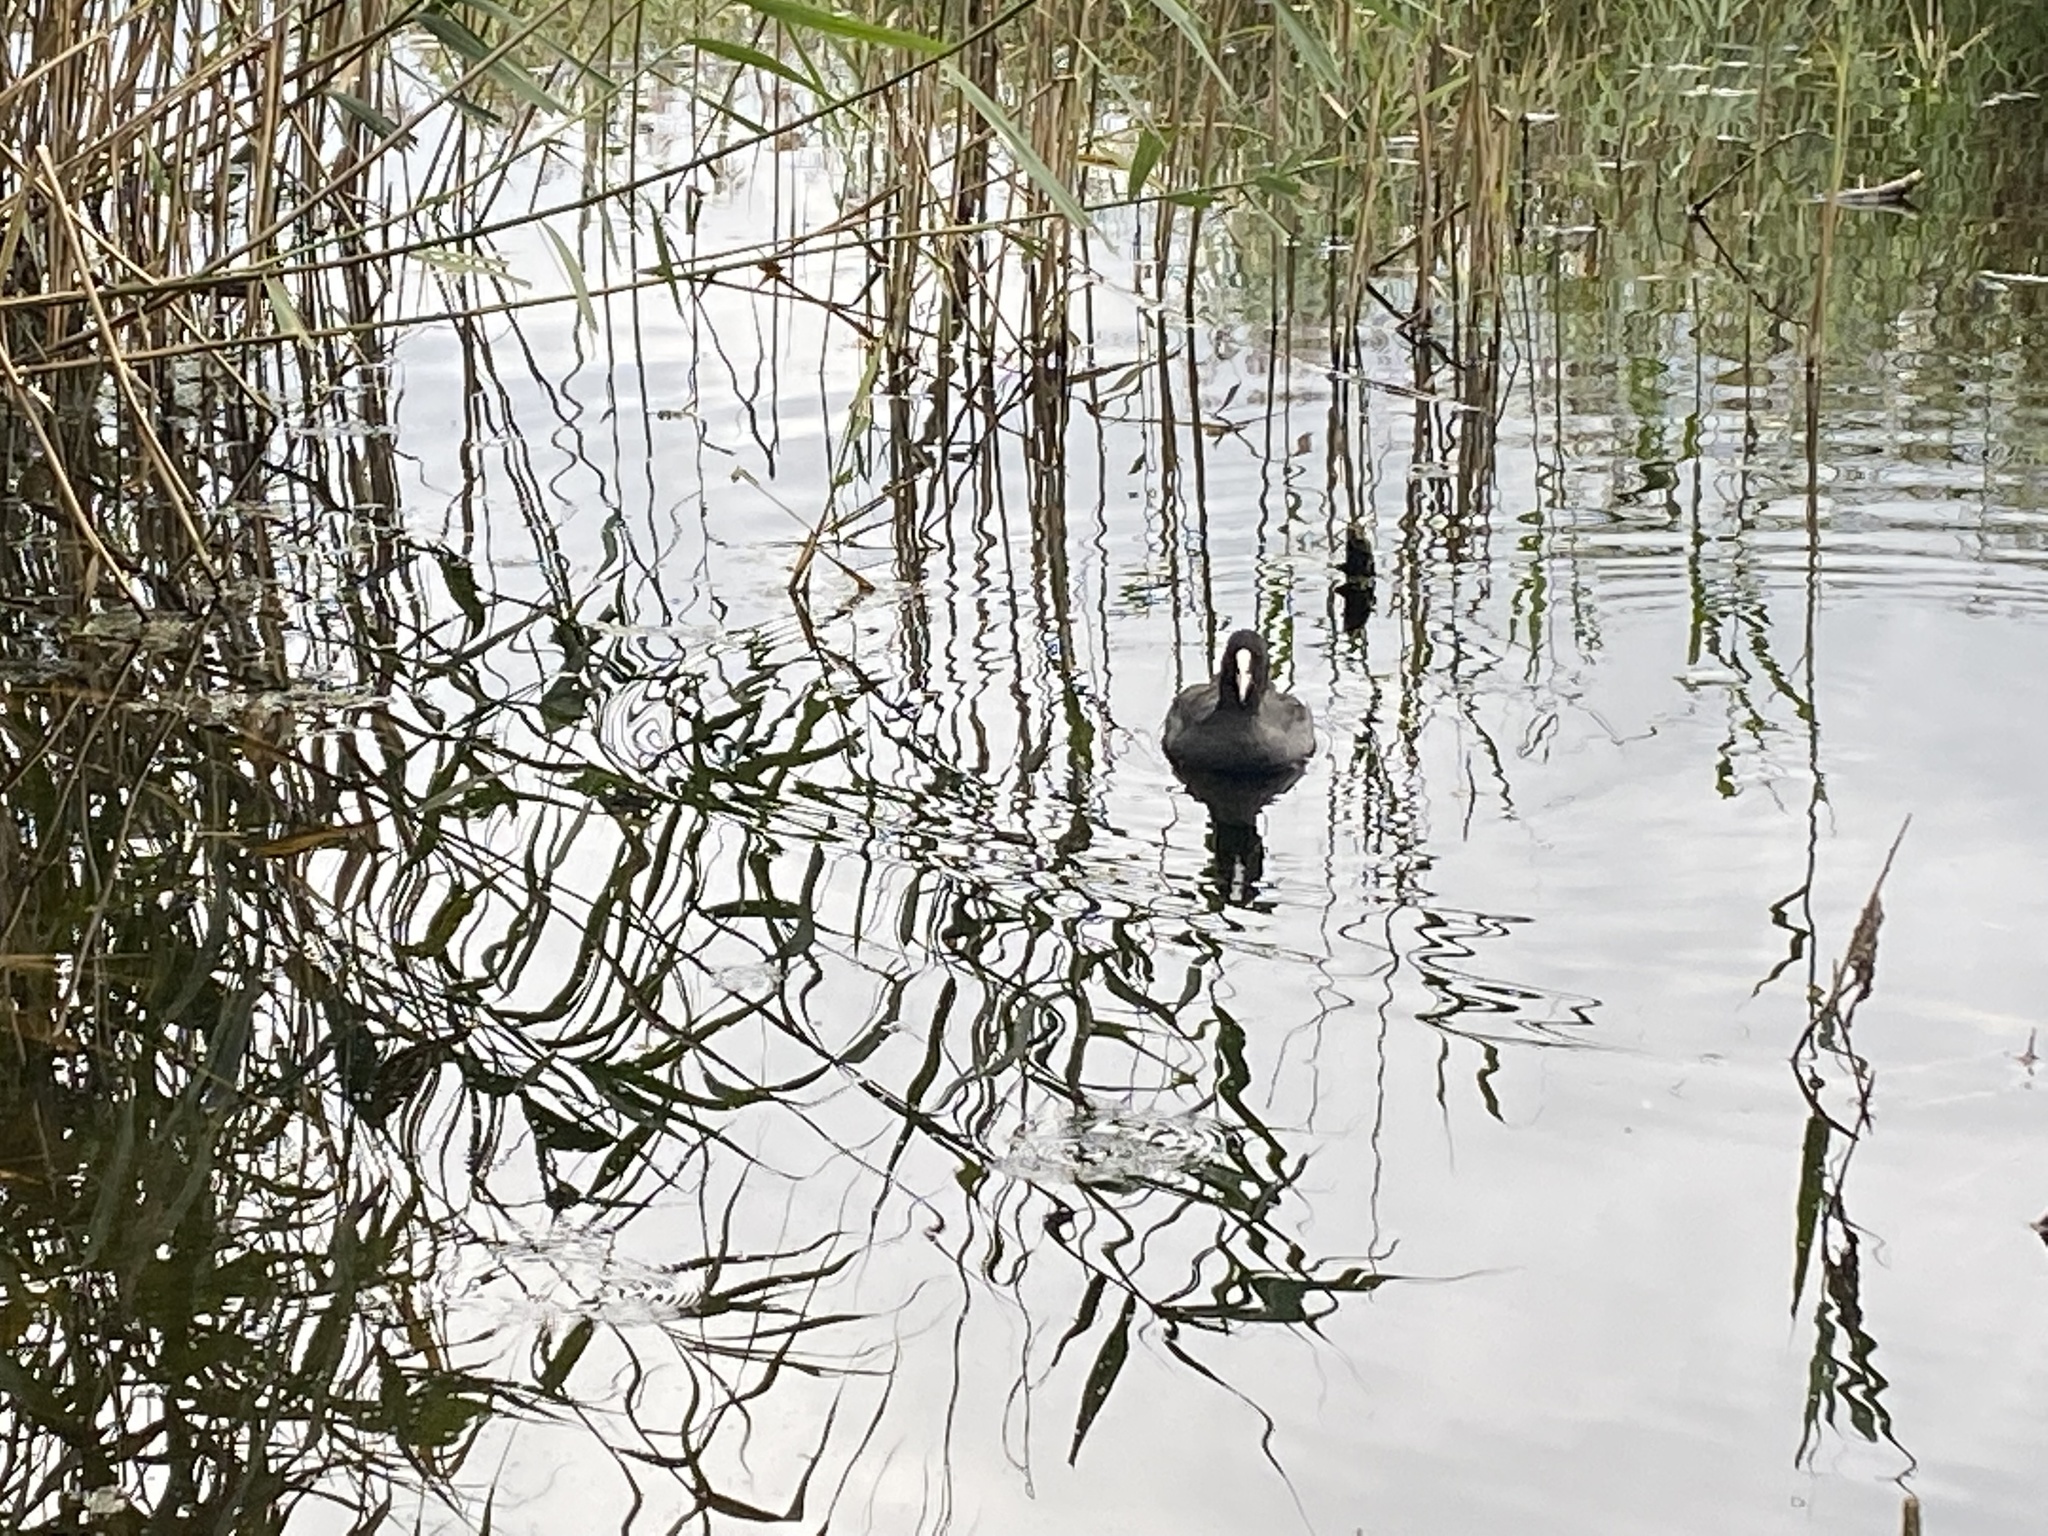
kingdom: Animalia
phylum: Chordata
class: Aves
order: Gruiformes
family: Rallidae
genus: Fulica
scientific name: Fulica atra
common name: Eurasian coot
